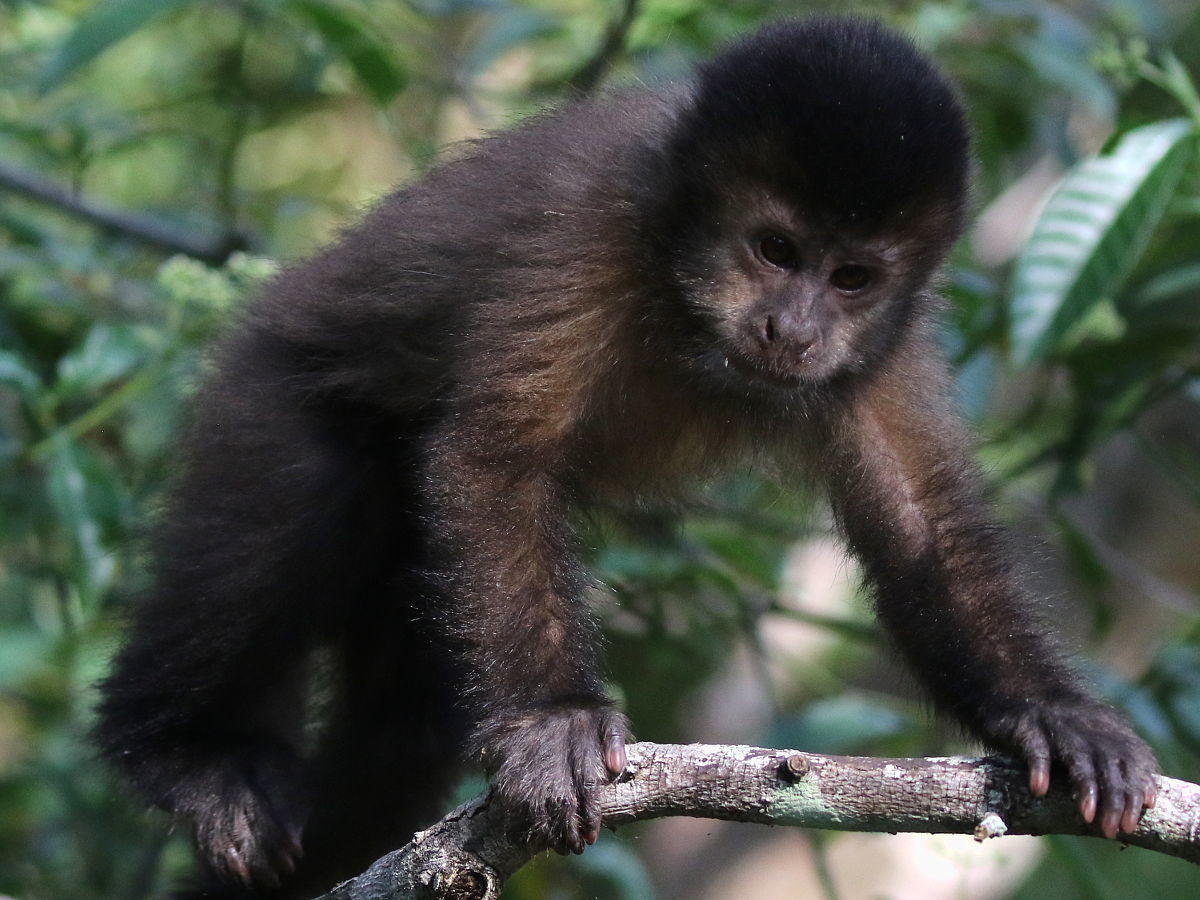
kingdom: Animalia
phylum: Chordata
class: Mammalia
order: Primates
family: Cebidae
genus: Sapajus
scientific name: Sapajus nigritus
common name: Black capuchin
